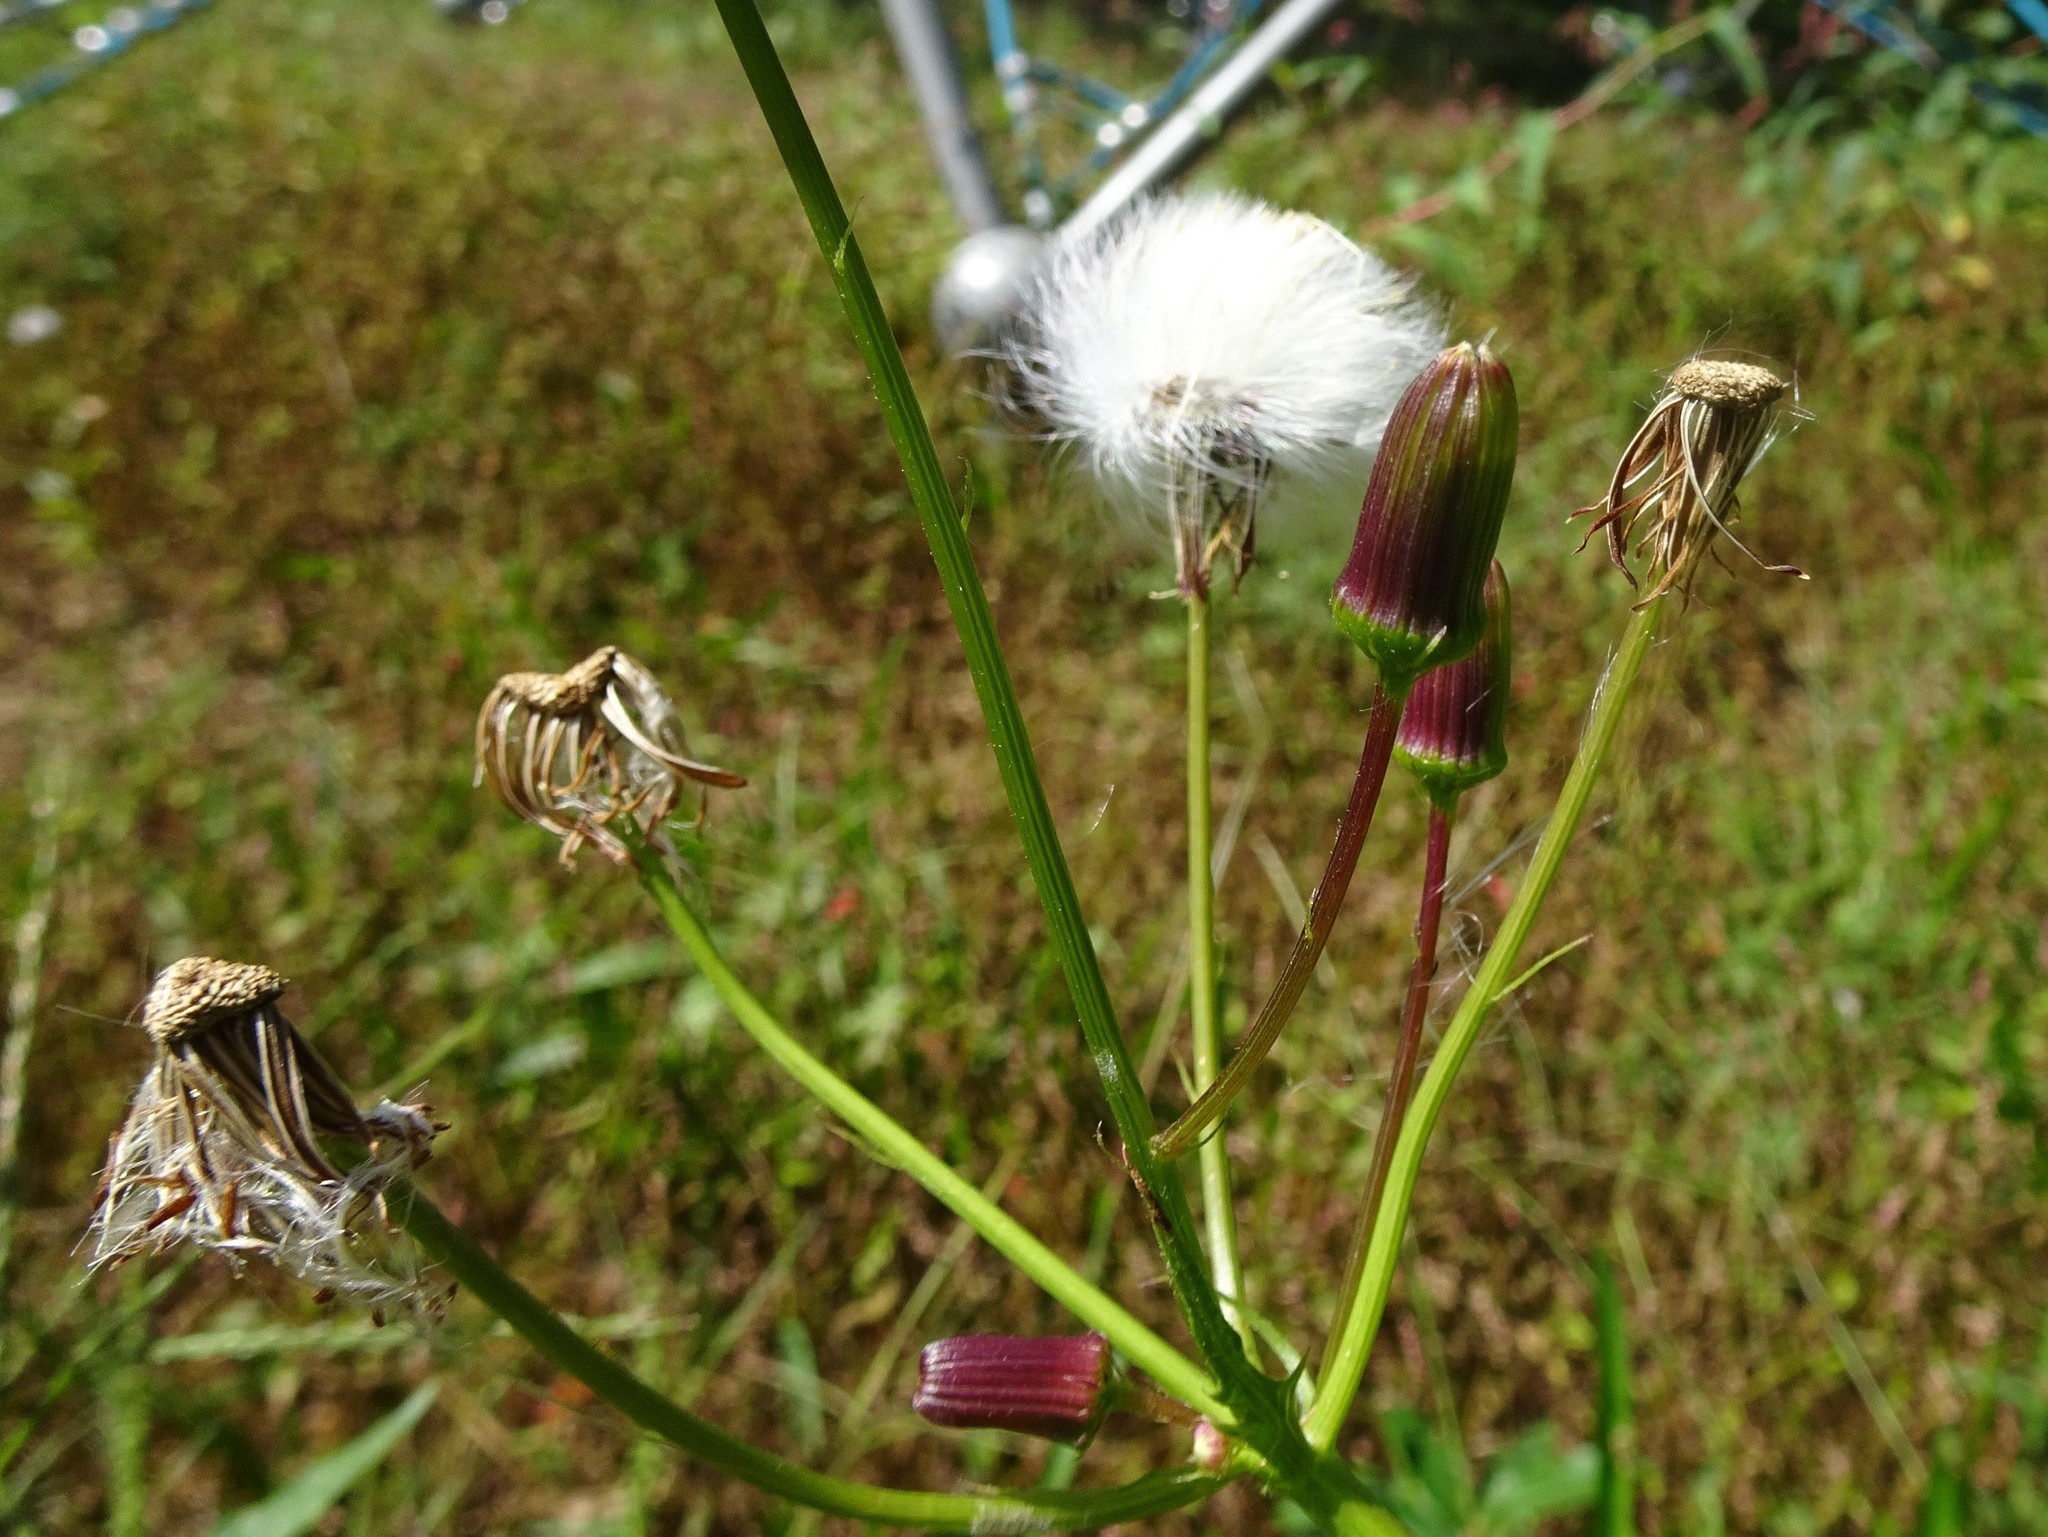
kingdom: Plantae
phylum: Tracheophyta
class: Magnoliopsida
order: Asterales
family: Asteraceae
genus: Erechtites
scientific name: Erechtites hieraciifolius
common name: American burnweed
